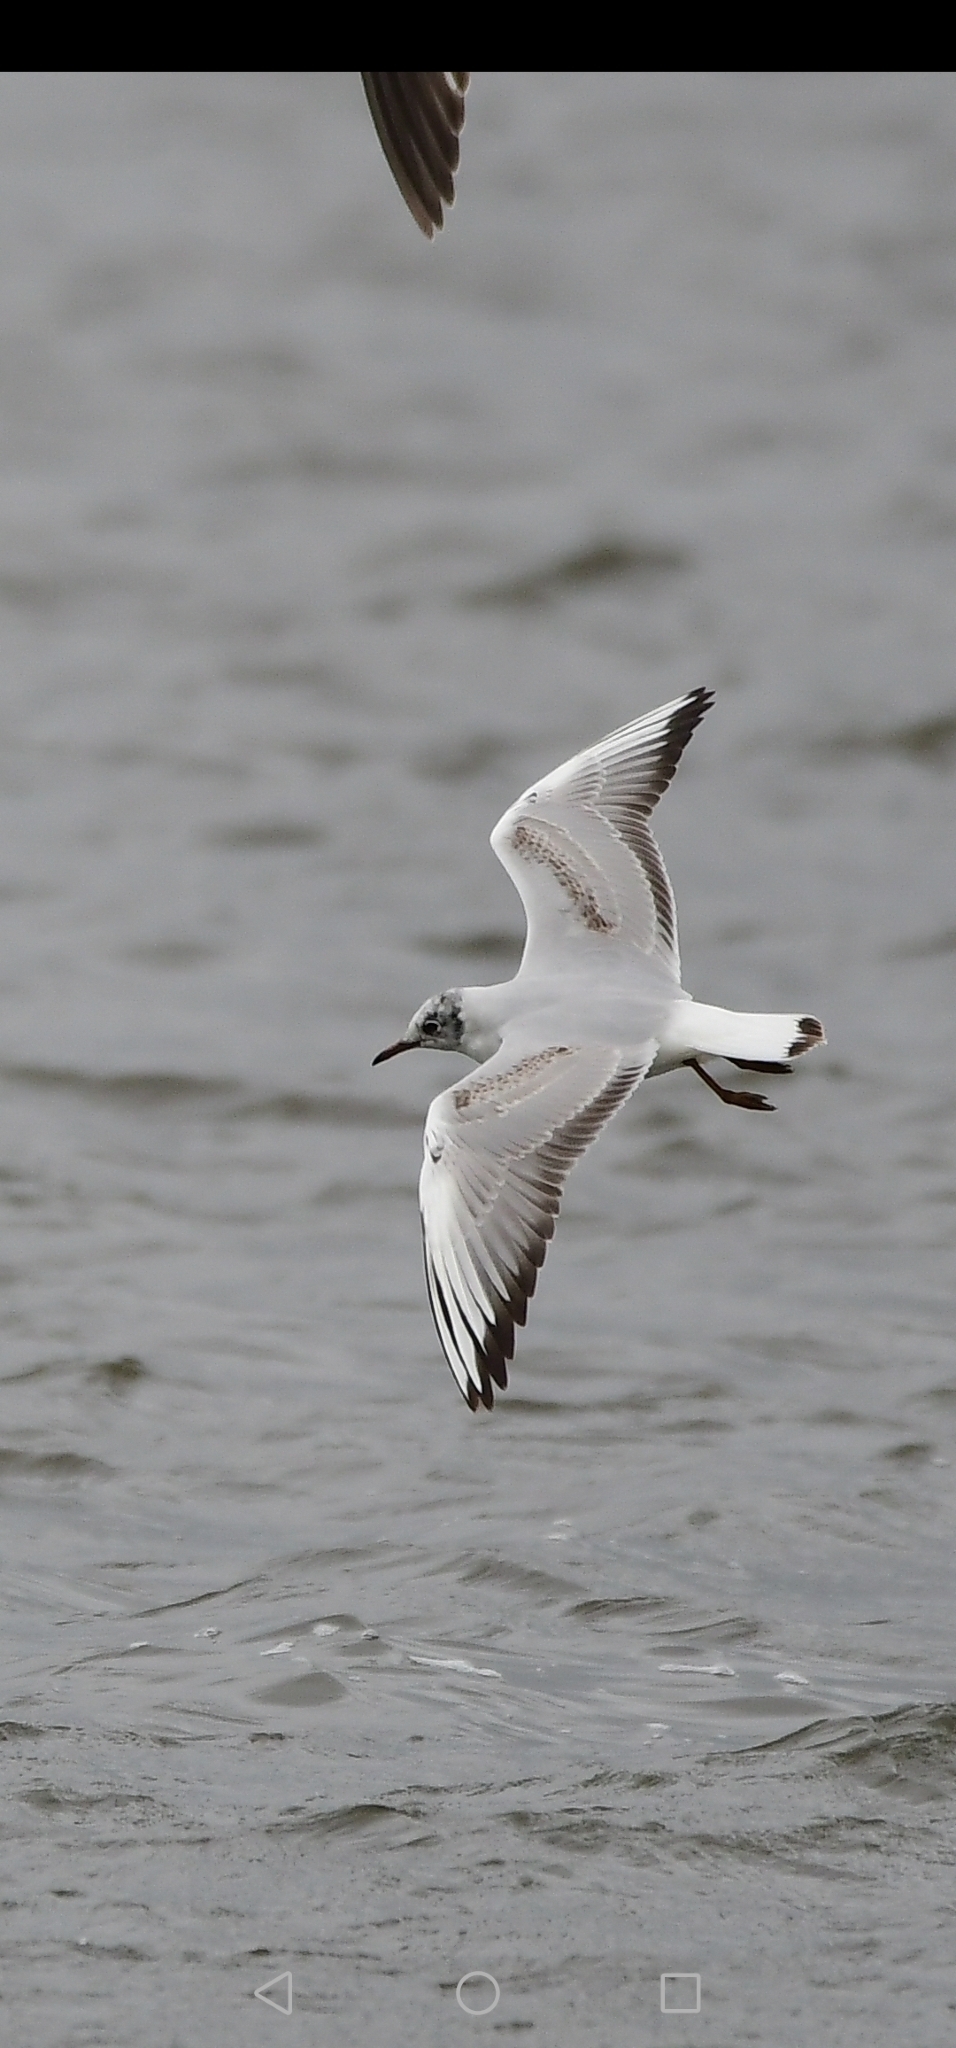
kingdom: Animalia
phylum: Chordata
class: Aves
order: Charadriiformes
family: Laridae
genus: Chroicocephalus
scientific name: Chroicocephalus ridibundus
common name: Black-headed gull
